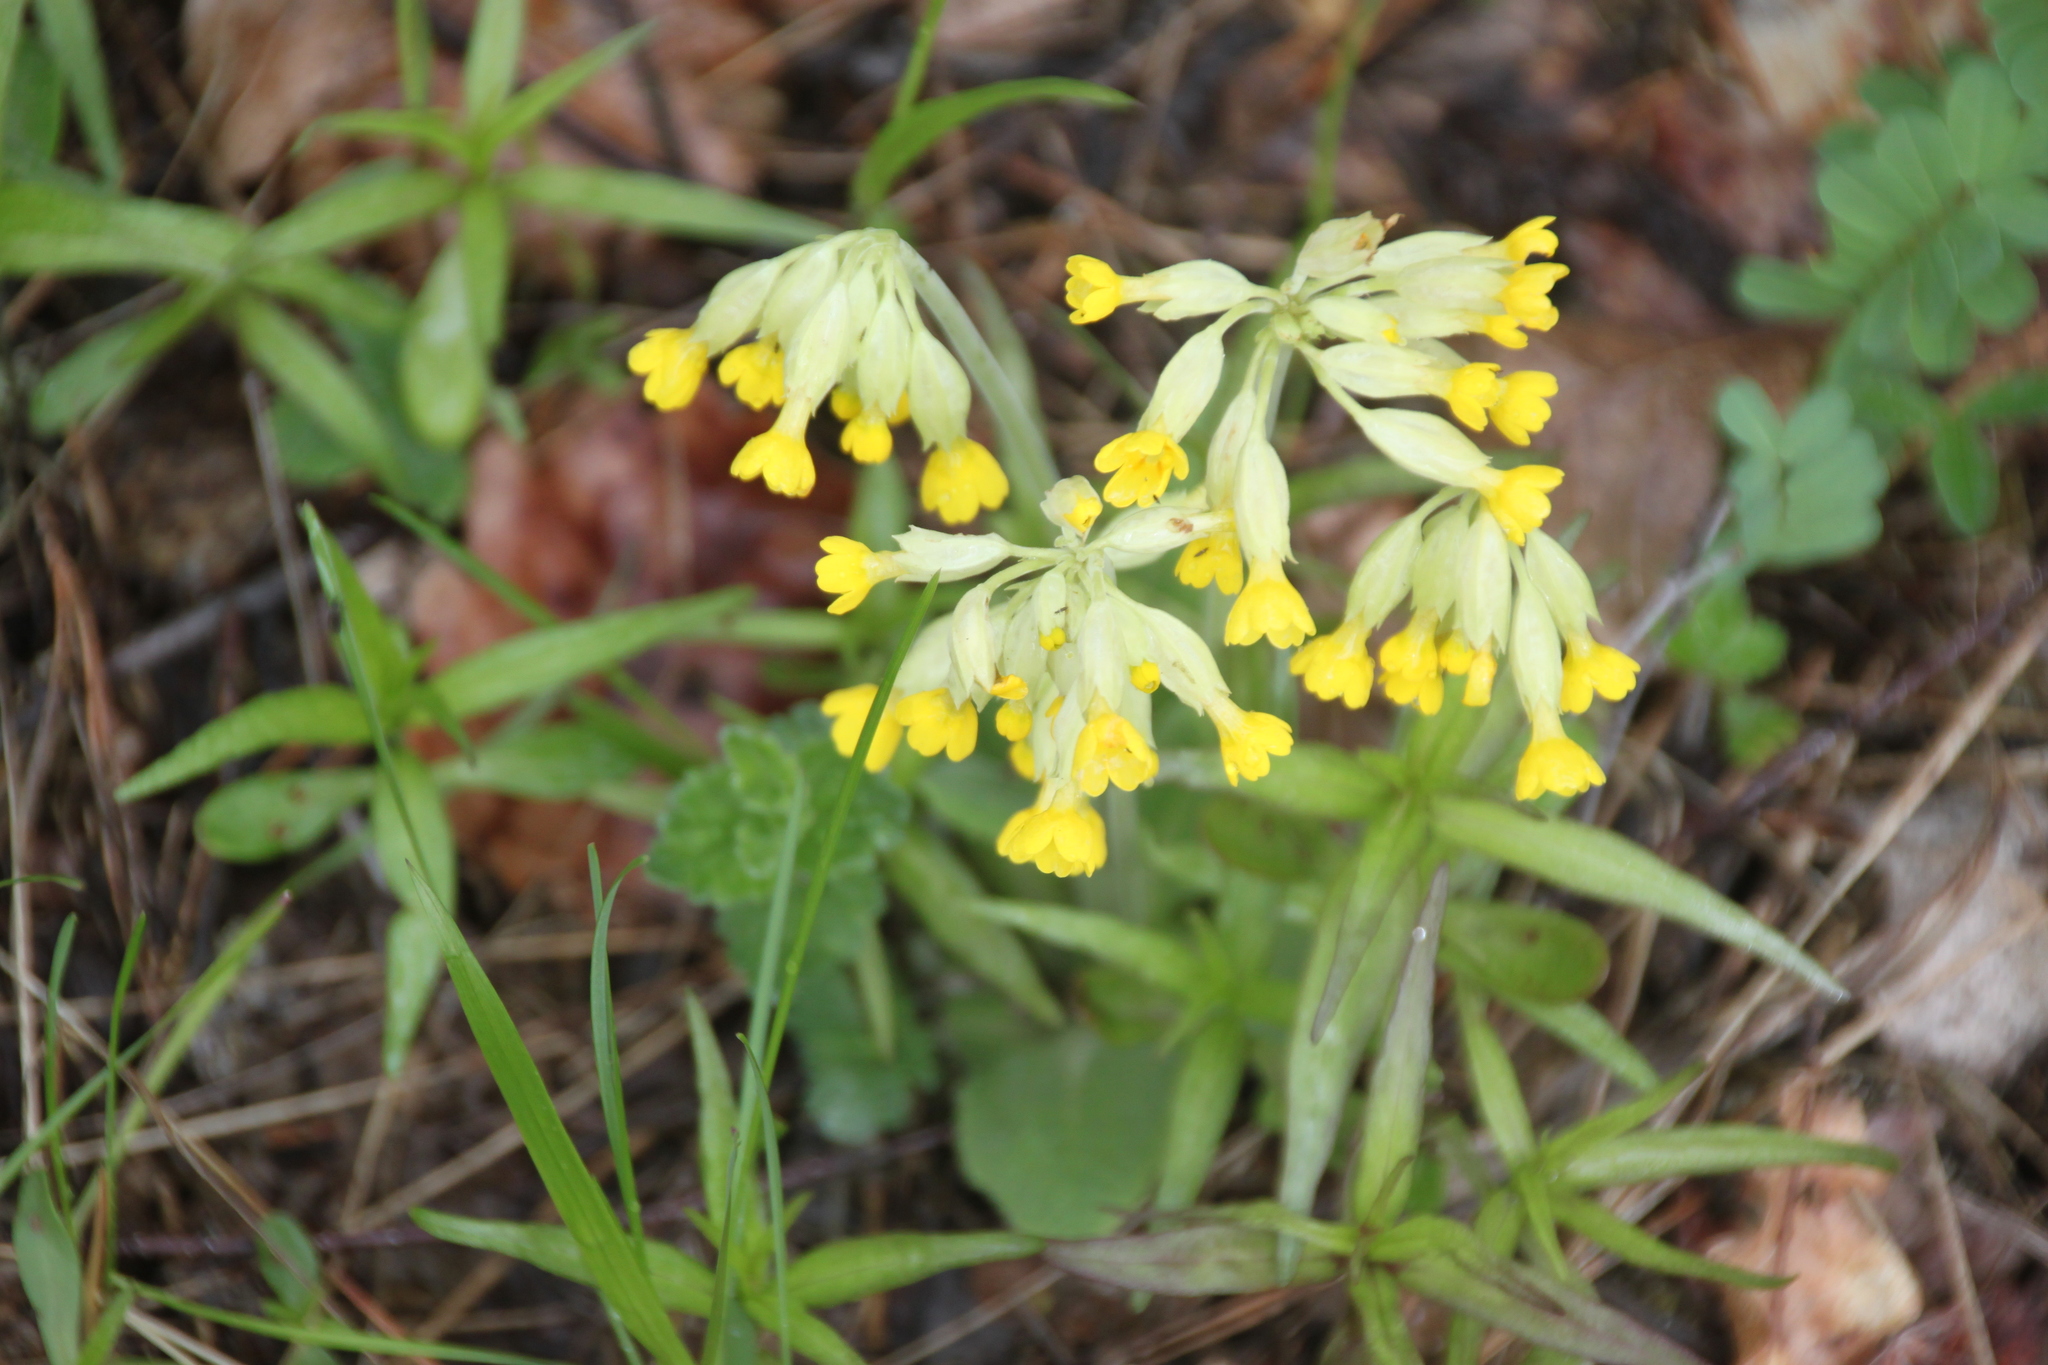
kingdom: Plantae
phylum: Tracheophyta
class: Magnoliopsida
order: Ericales
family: Primulaceae
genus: Primula
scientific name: Primula veris
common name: Cowslip
